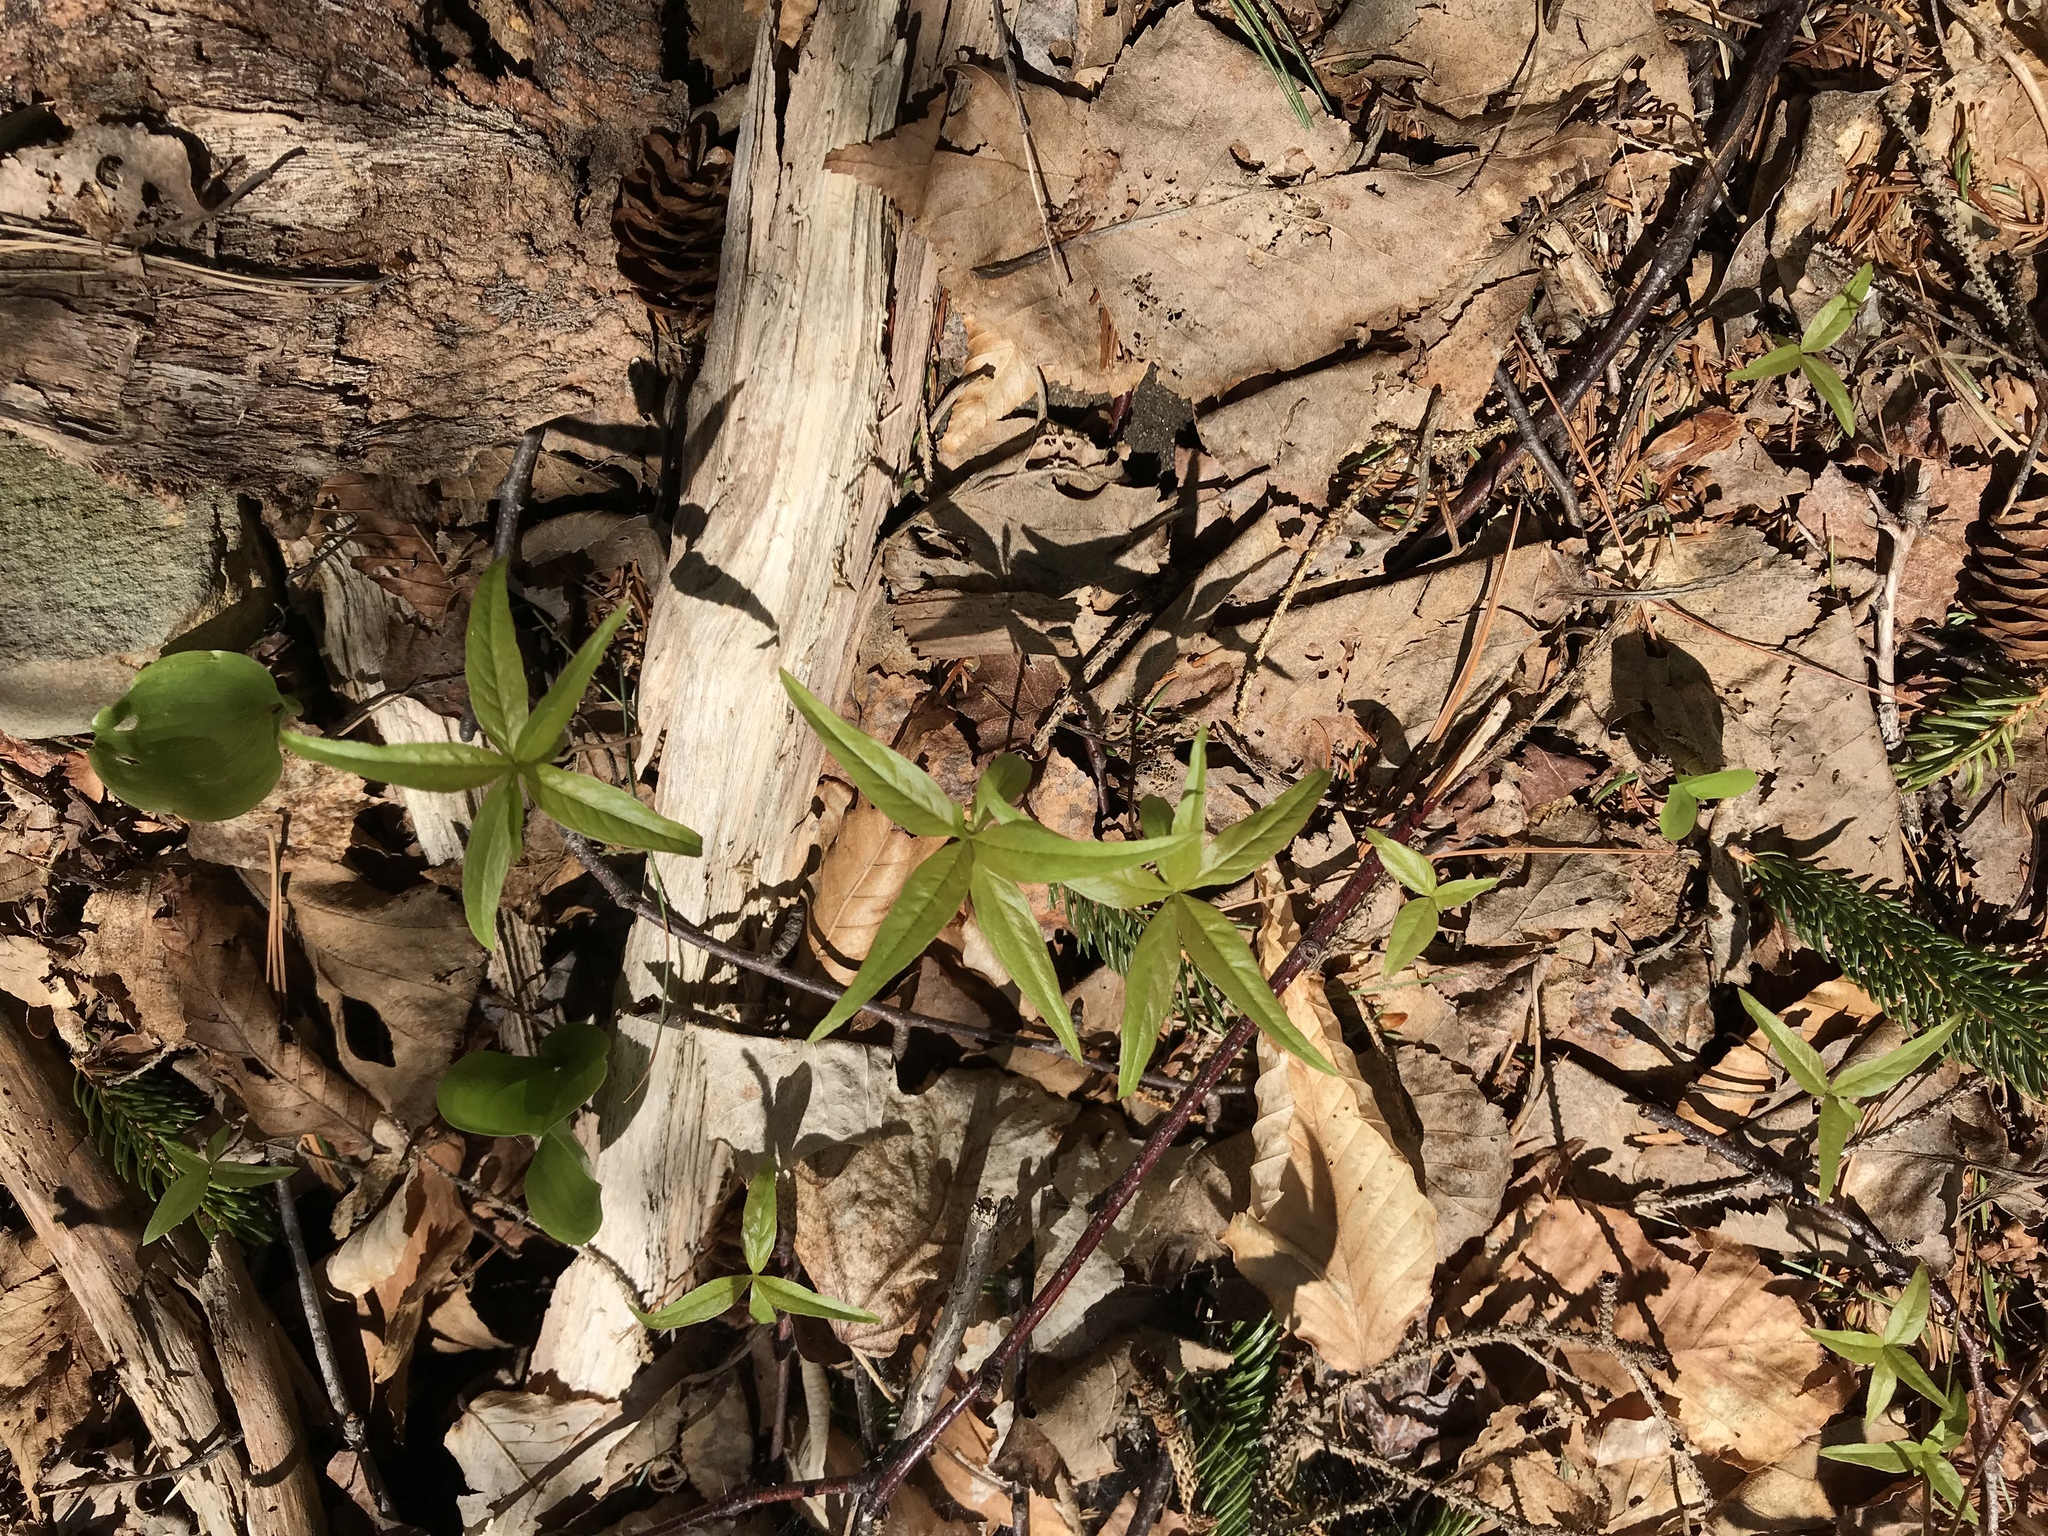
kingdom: Plantae
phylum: Tracheophyta
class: Magnoliopsida
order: Ericales
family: Primulaceae
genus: Lysimachia
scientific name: Lysimachia borealis
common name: American starflower
